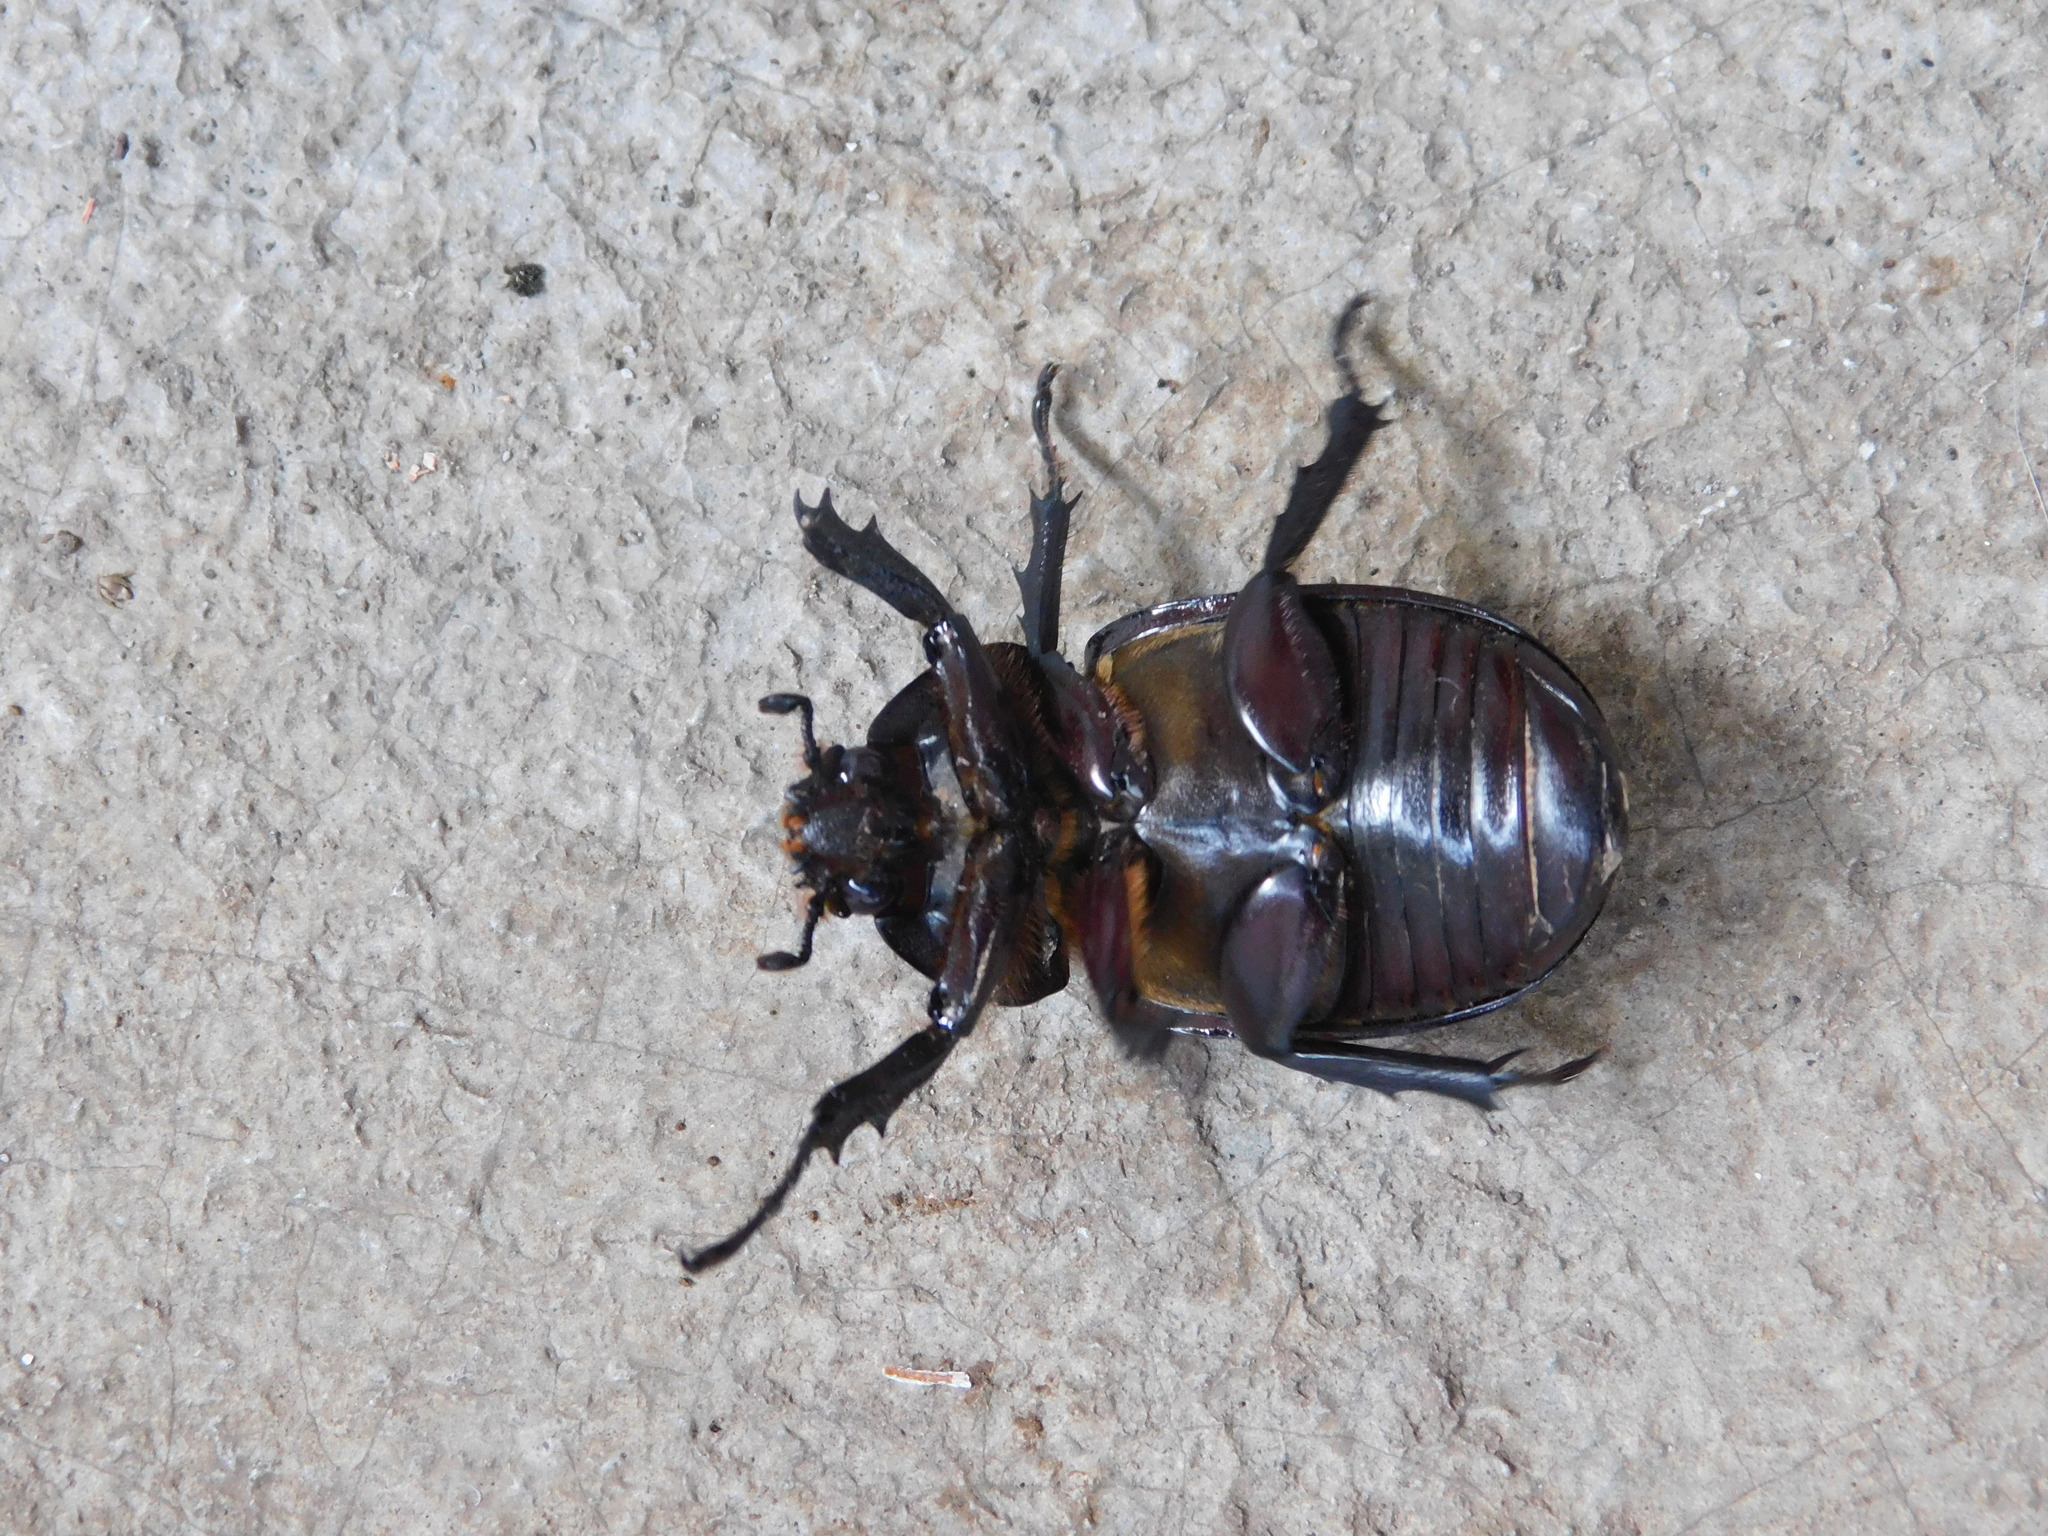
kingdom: Animalia
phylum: Arthropoda
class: Insecta
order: Coleoptera
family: Scarabaeidae
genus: Xylotrupes
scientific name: Xylotrupes gideon
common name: Elephant beetle
